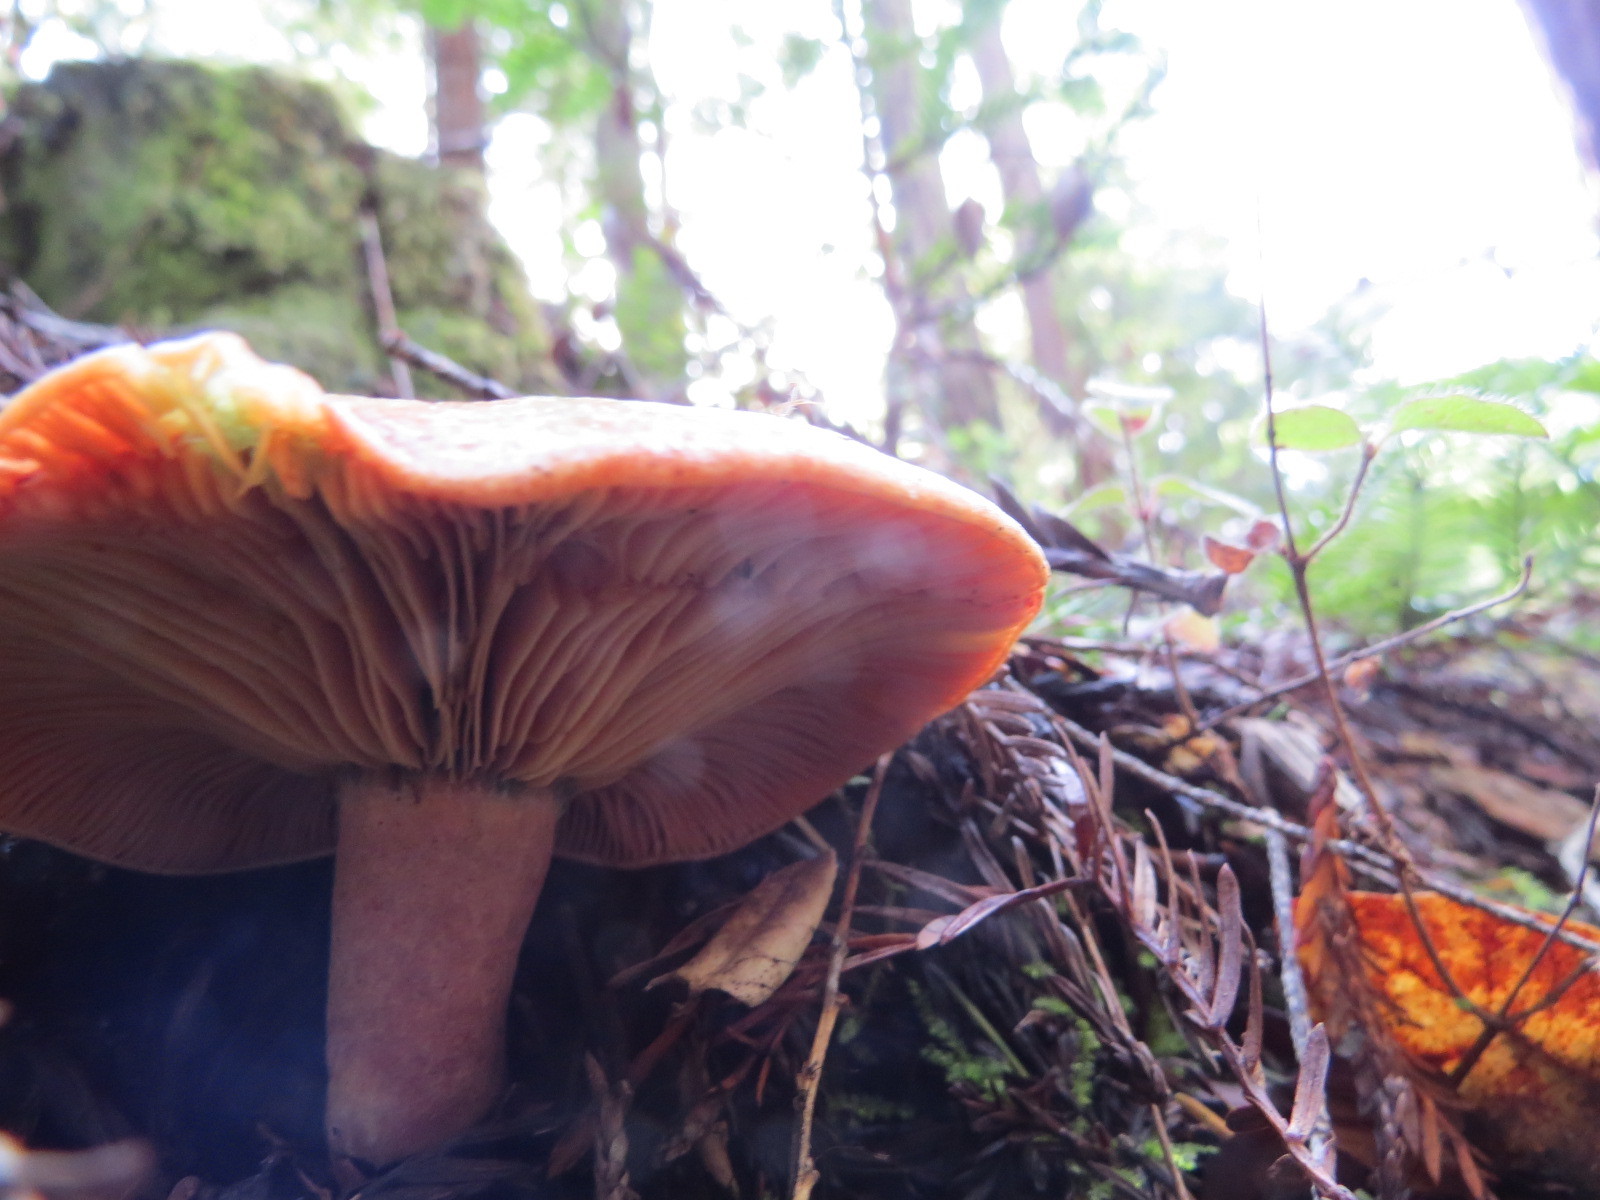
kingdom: Fungi
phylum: Basidiomycota
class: Agaricomycetes
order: Russulales
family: Russulaceae
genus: Lactarius
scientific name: Lactarius deliciosus
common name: Saffron milk-cap
